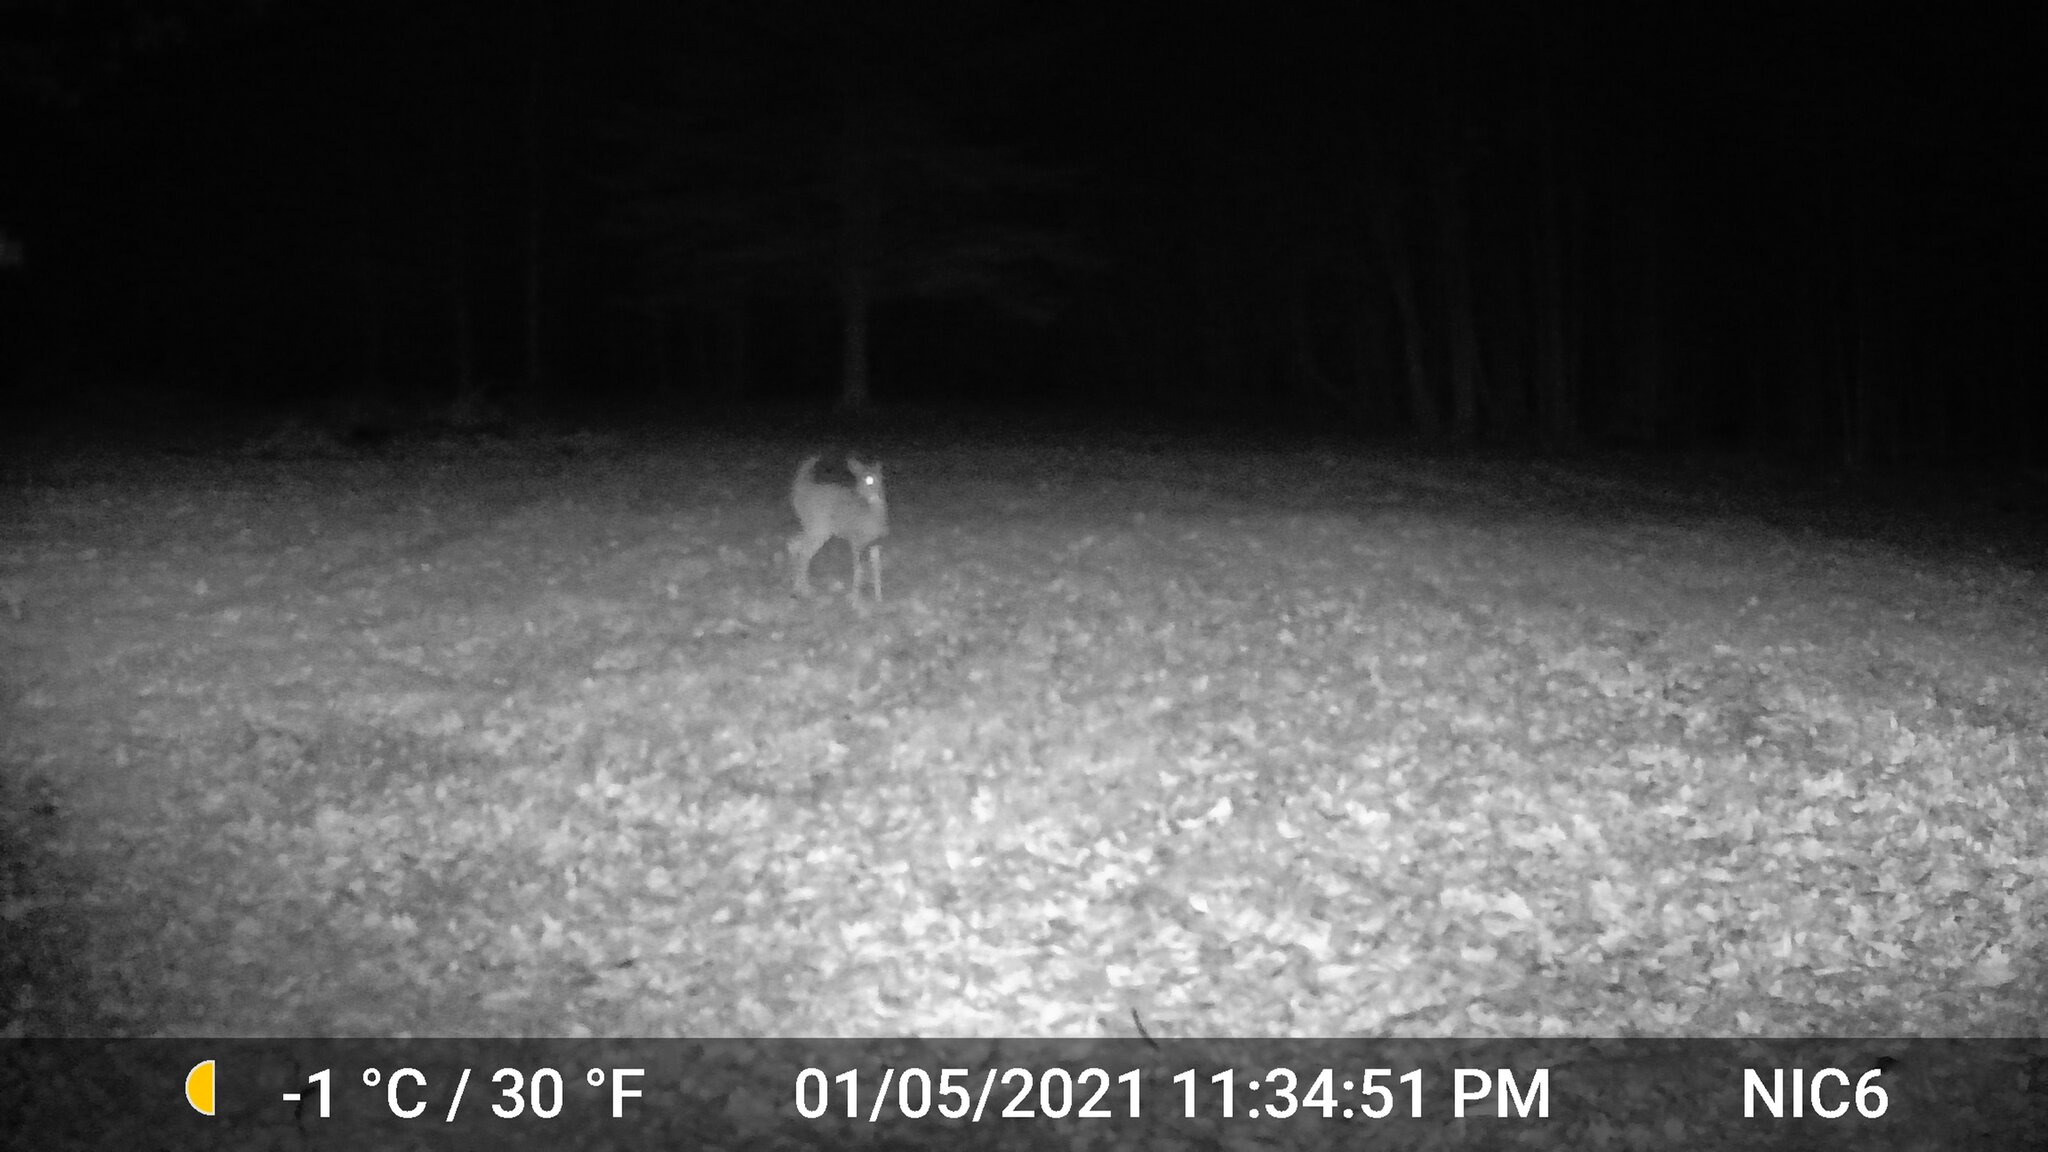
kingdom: Animalia
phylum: Chordata
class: Mammalia
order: Artiodactyla
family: Cervidae
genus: Odocoileus
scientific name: Odocoileus virginianus
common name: White-tailed deer
